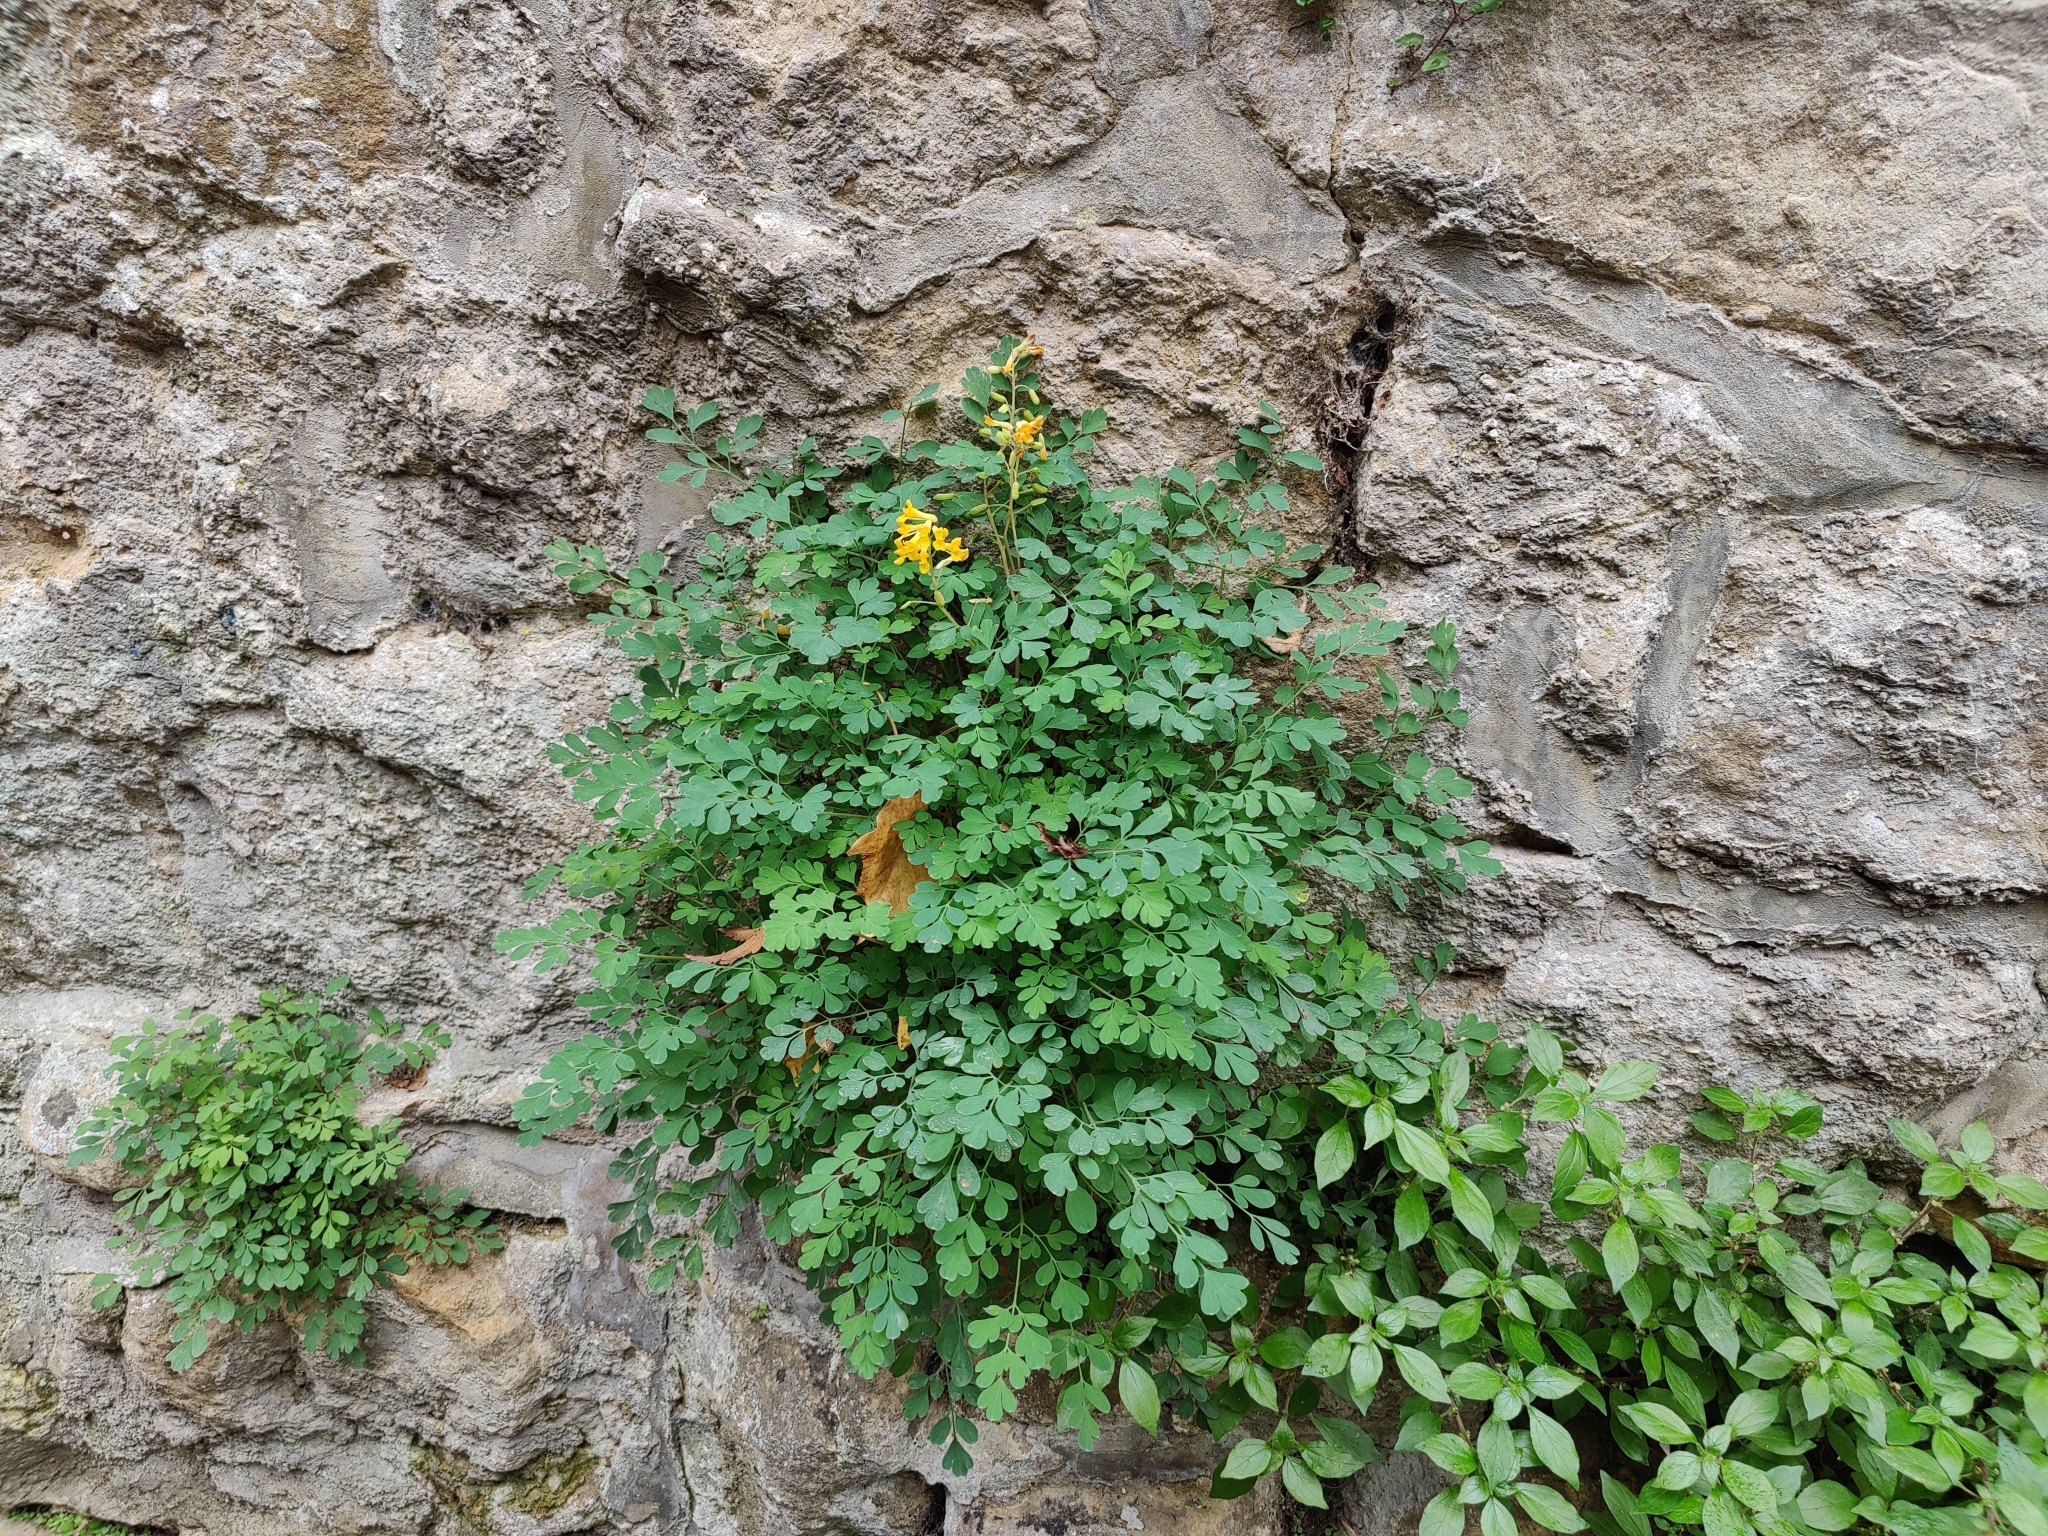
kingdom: Plantae
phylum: Tracheophyta
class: Magnoliopsida
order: Ranunculales
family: Papaveraceae
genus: Pseudofumaria
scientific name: Pseudofumaria lutea
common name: Yellow corydalis
